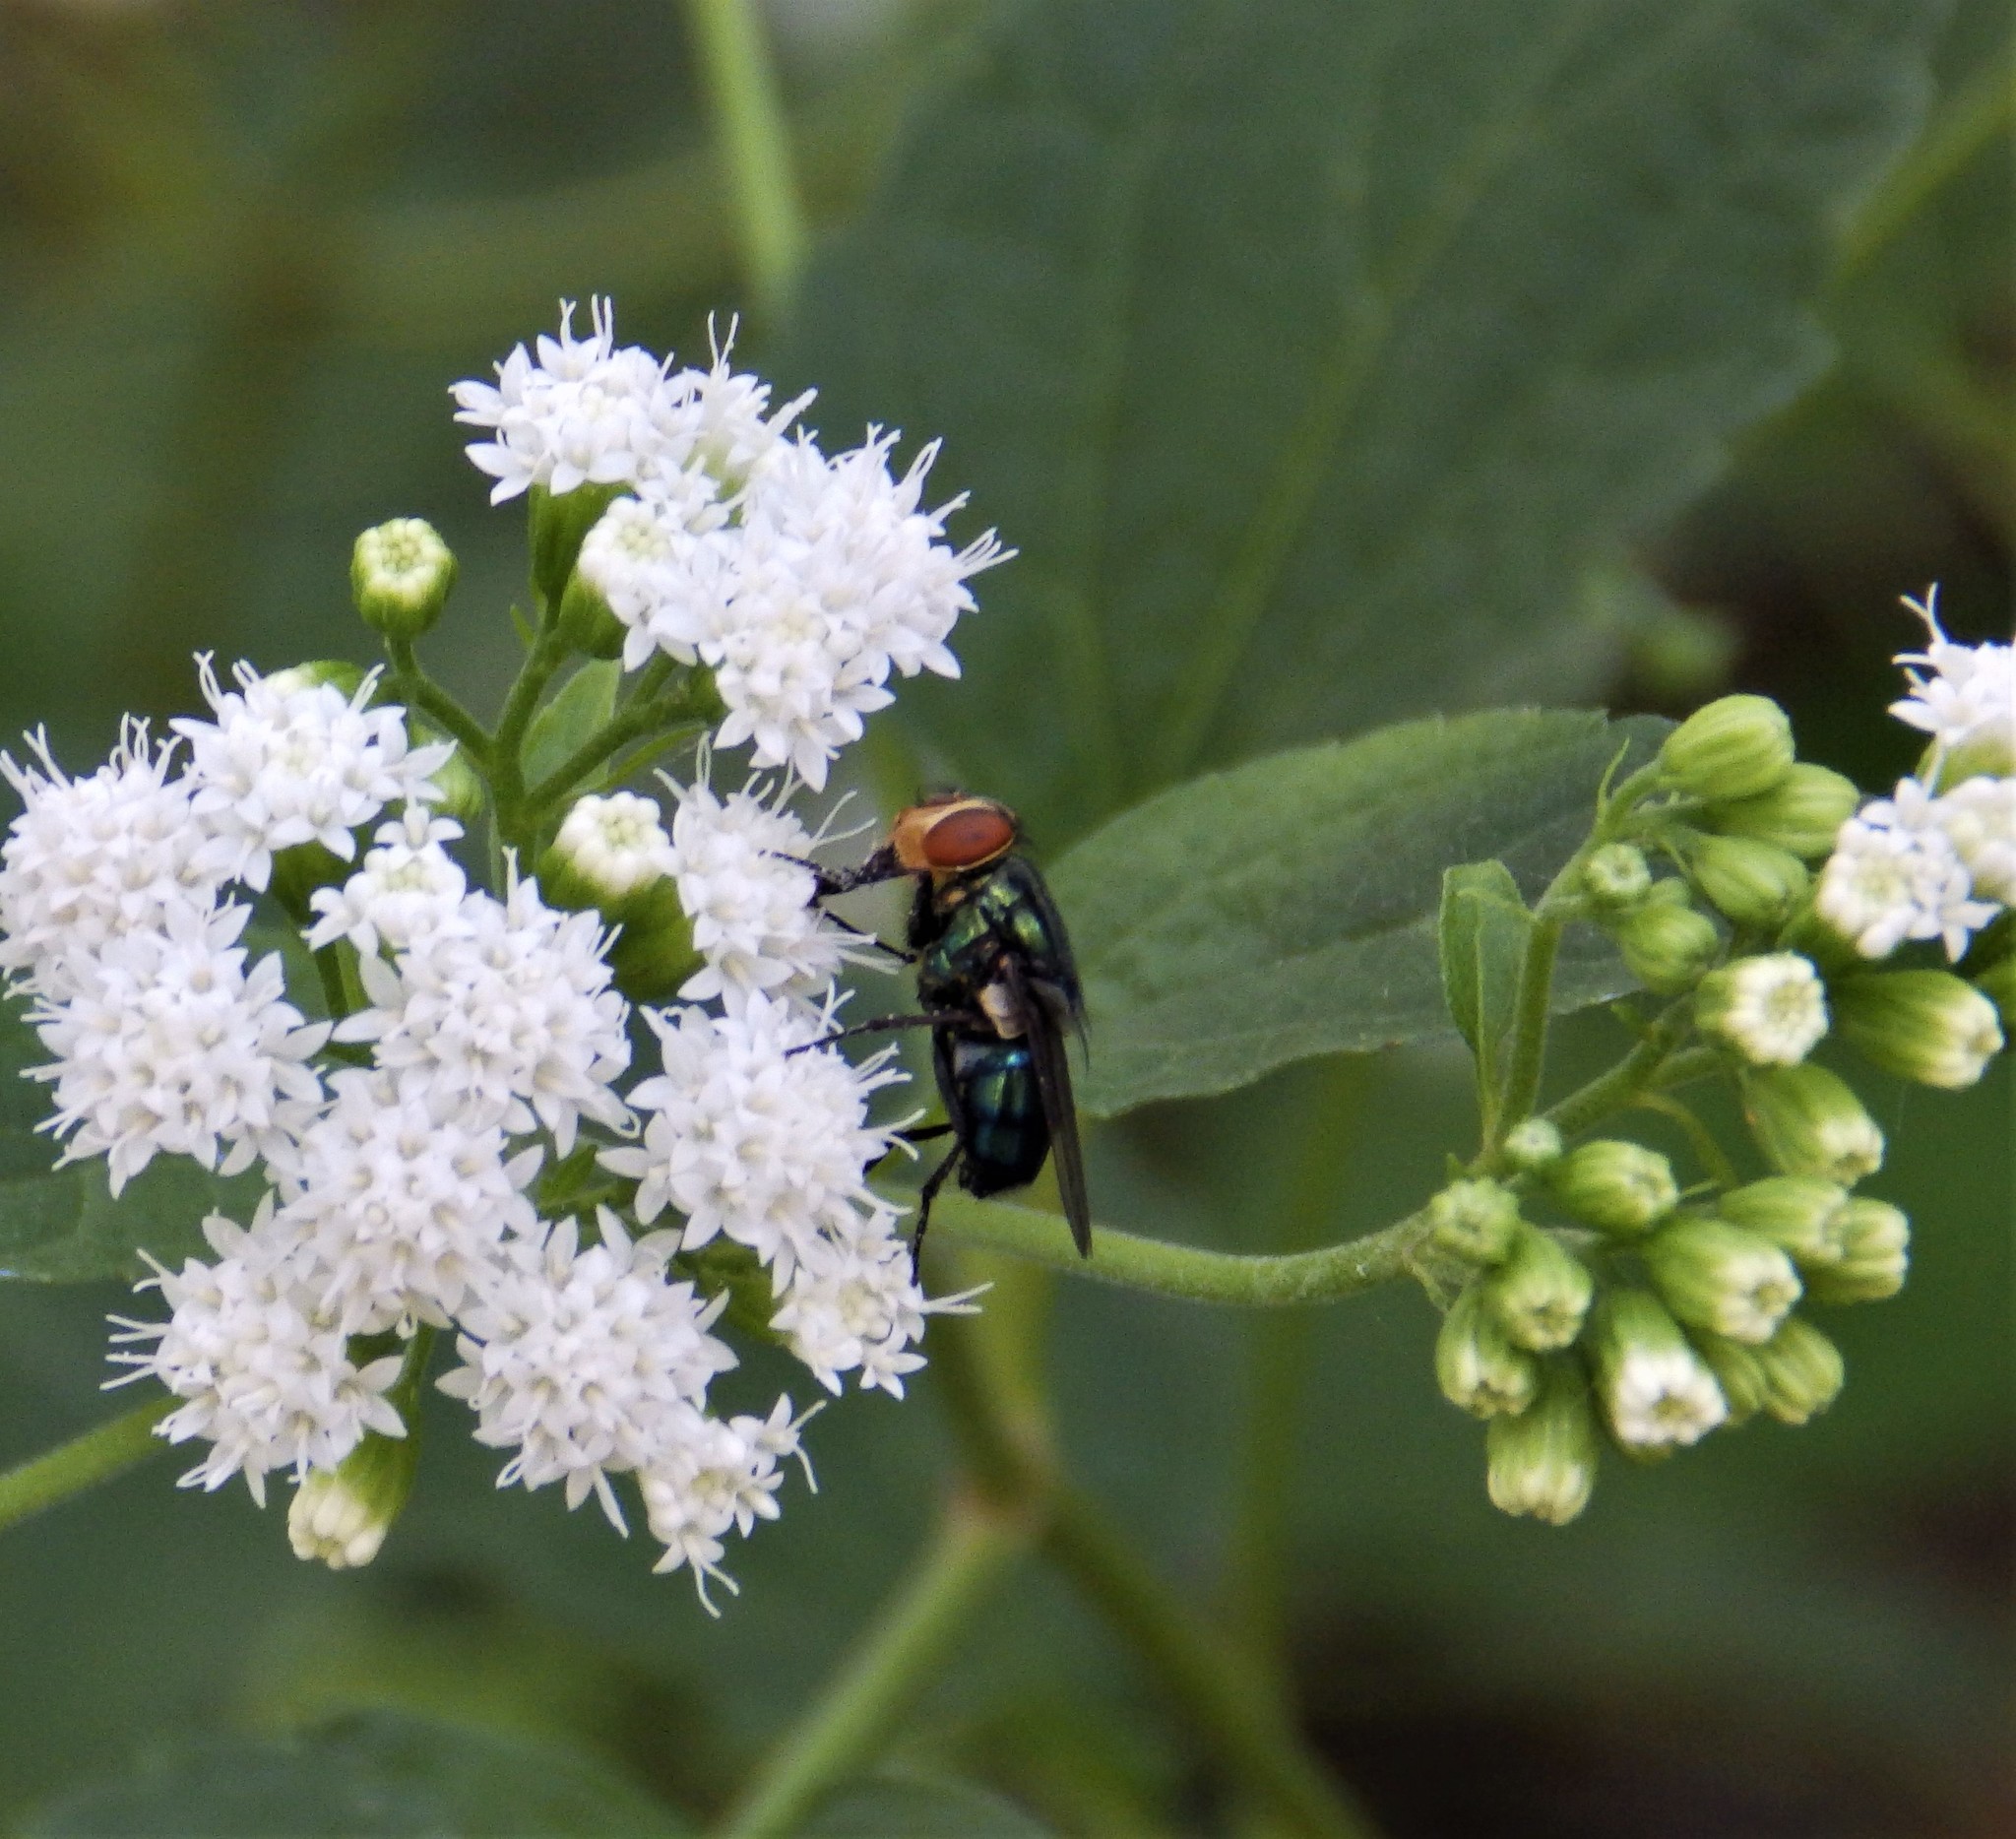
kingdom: Animalia
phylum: Arthropoda
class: Insecta
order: Diptera
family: Calliphoridae
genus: Cochliomyia
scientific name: Cochliomyia macellaria
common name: Secondary screwworm
